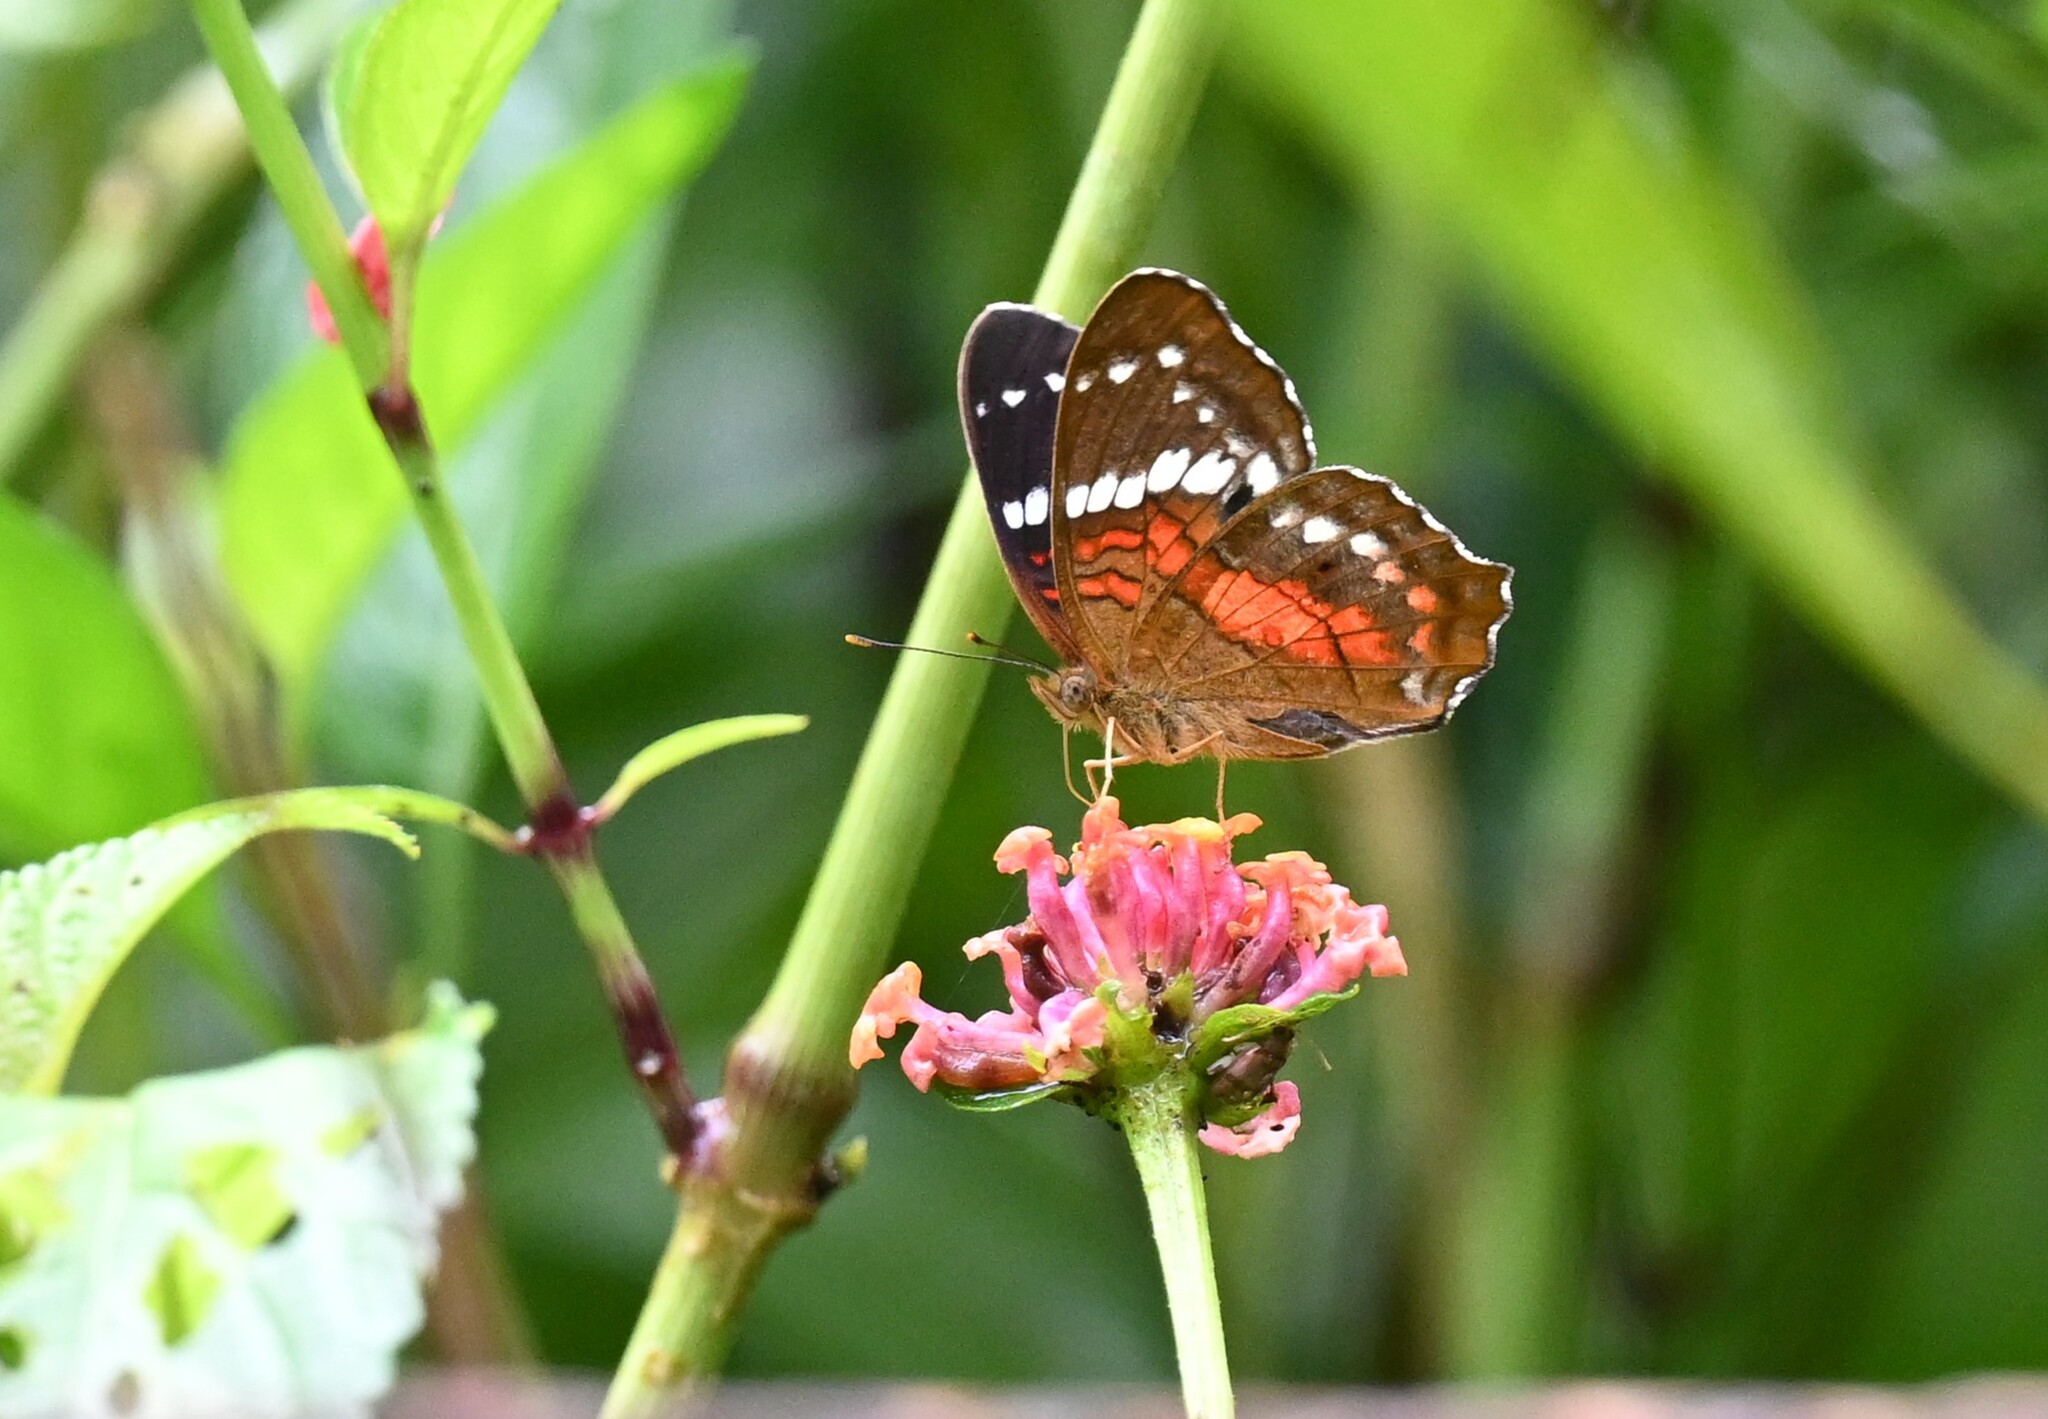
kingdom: Animalia
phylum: Arthropoda
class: Insecta
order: Lepidoptera
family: Nymphalidae
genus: Anartia
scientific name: Anartia amathea
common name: Red peacock
